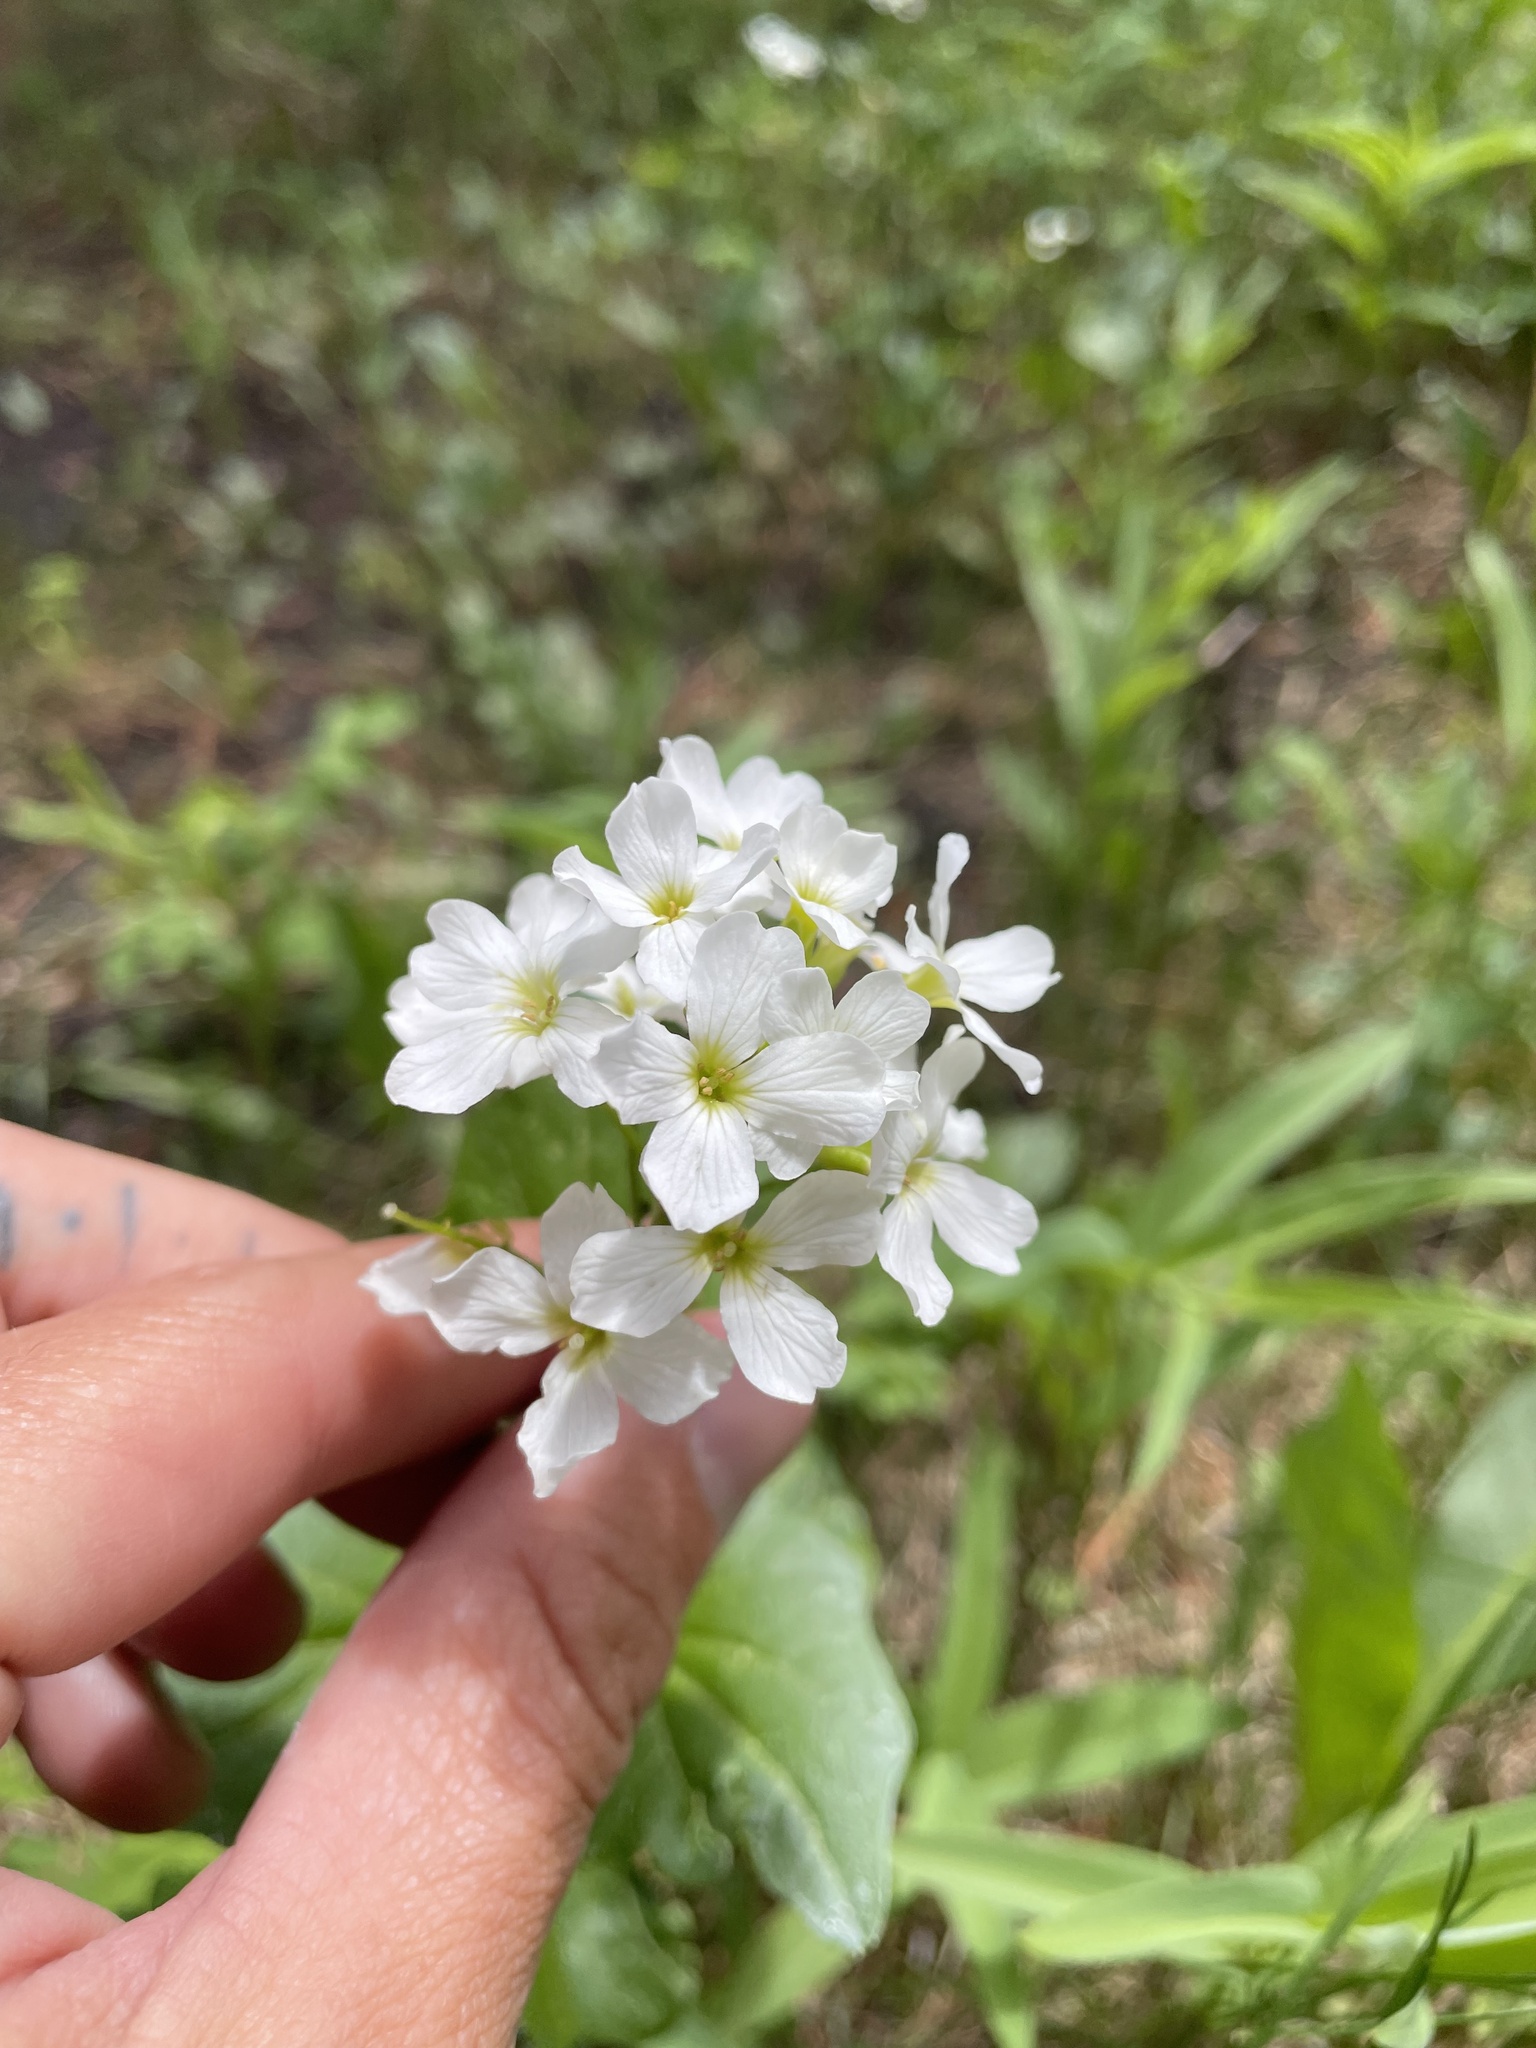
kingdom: Plantae
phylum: Tracheophyta
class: Magnoliopsida
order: Brassicales
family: Brassicaceae
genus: Cardamine
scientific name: Cardamine cordifolia
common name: Heart-leaf bittercress
